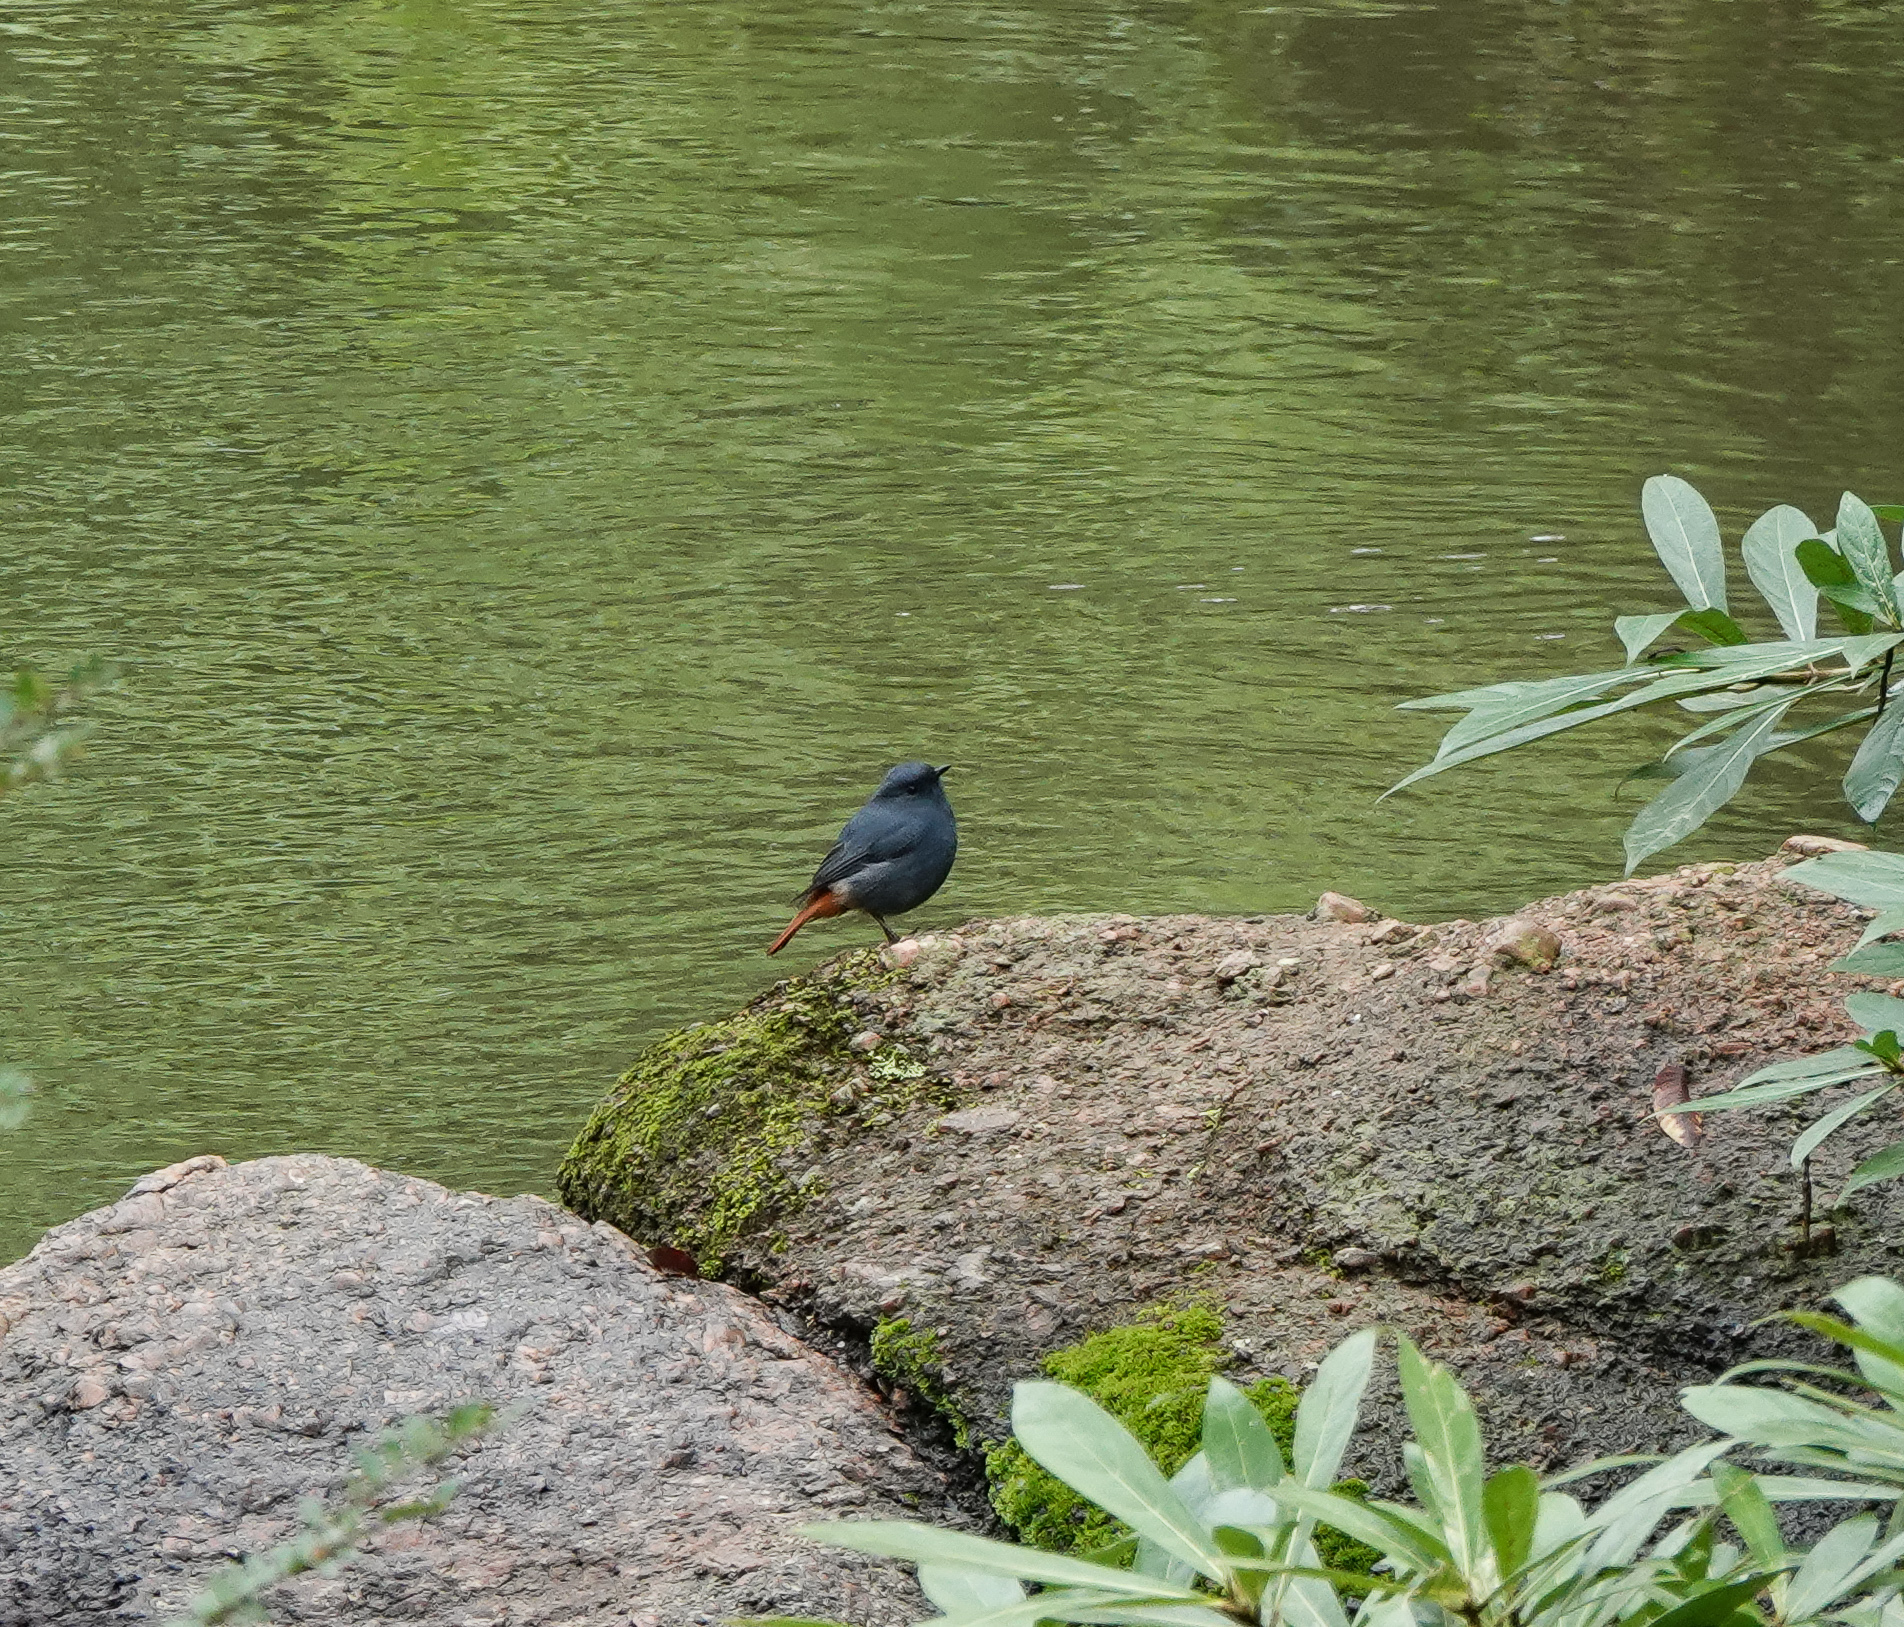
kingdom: Animalia
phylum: Chordata
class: Aves
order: Passeriformes
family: Muscicapidae
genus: Phoenicurus
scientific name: Phoenicurus fuliginosus
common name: Plumbeous water redstart
